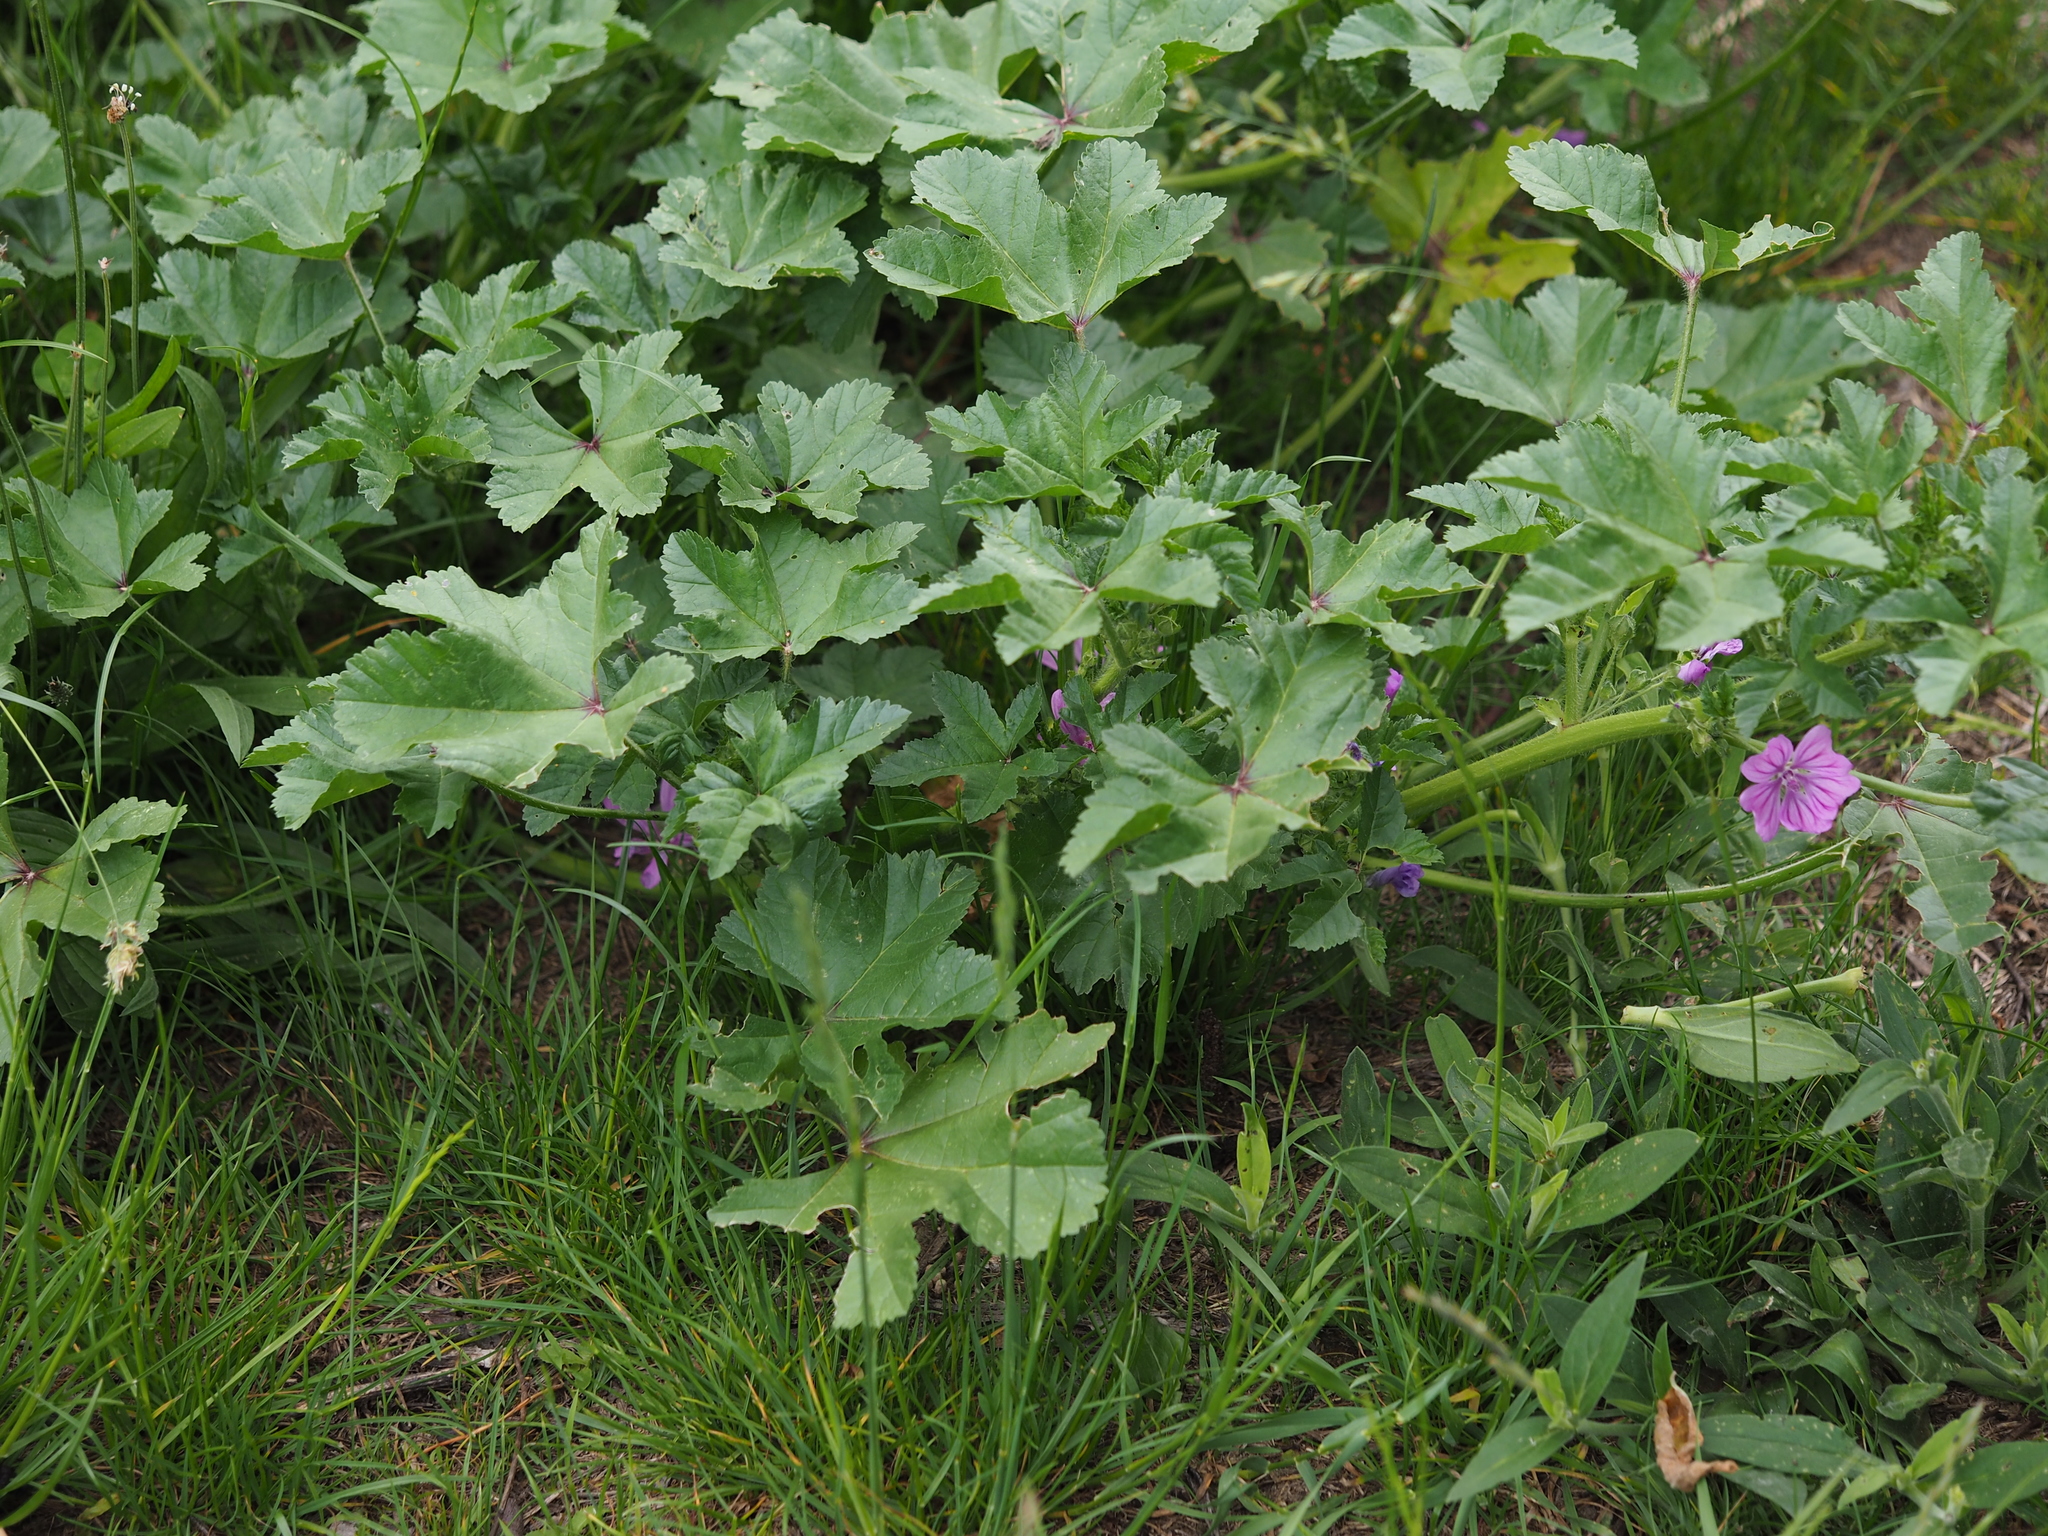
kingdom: Plantae
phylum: Tracheophyta
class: Magnoliopsida
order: Malvales
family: Malvaceae
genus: Malva
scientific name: Malva sylvestris
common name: Common mallow
